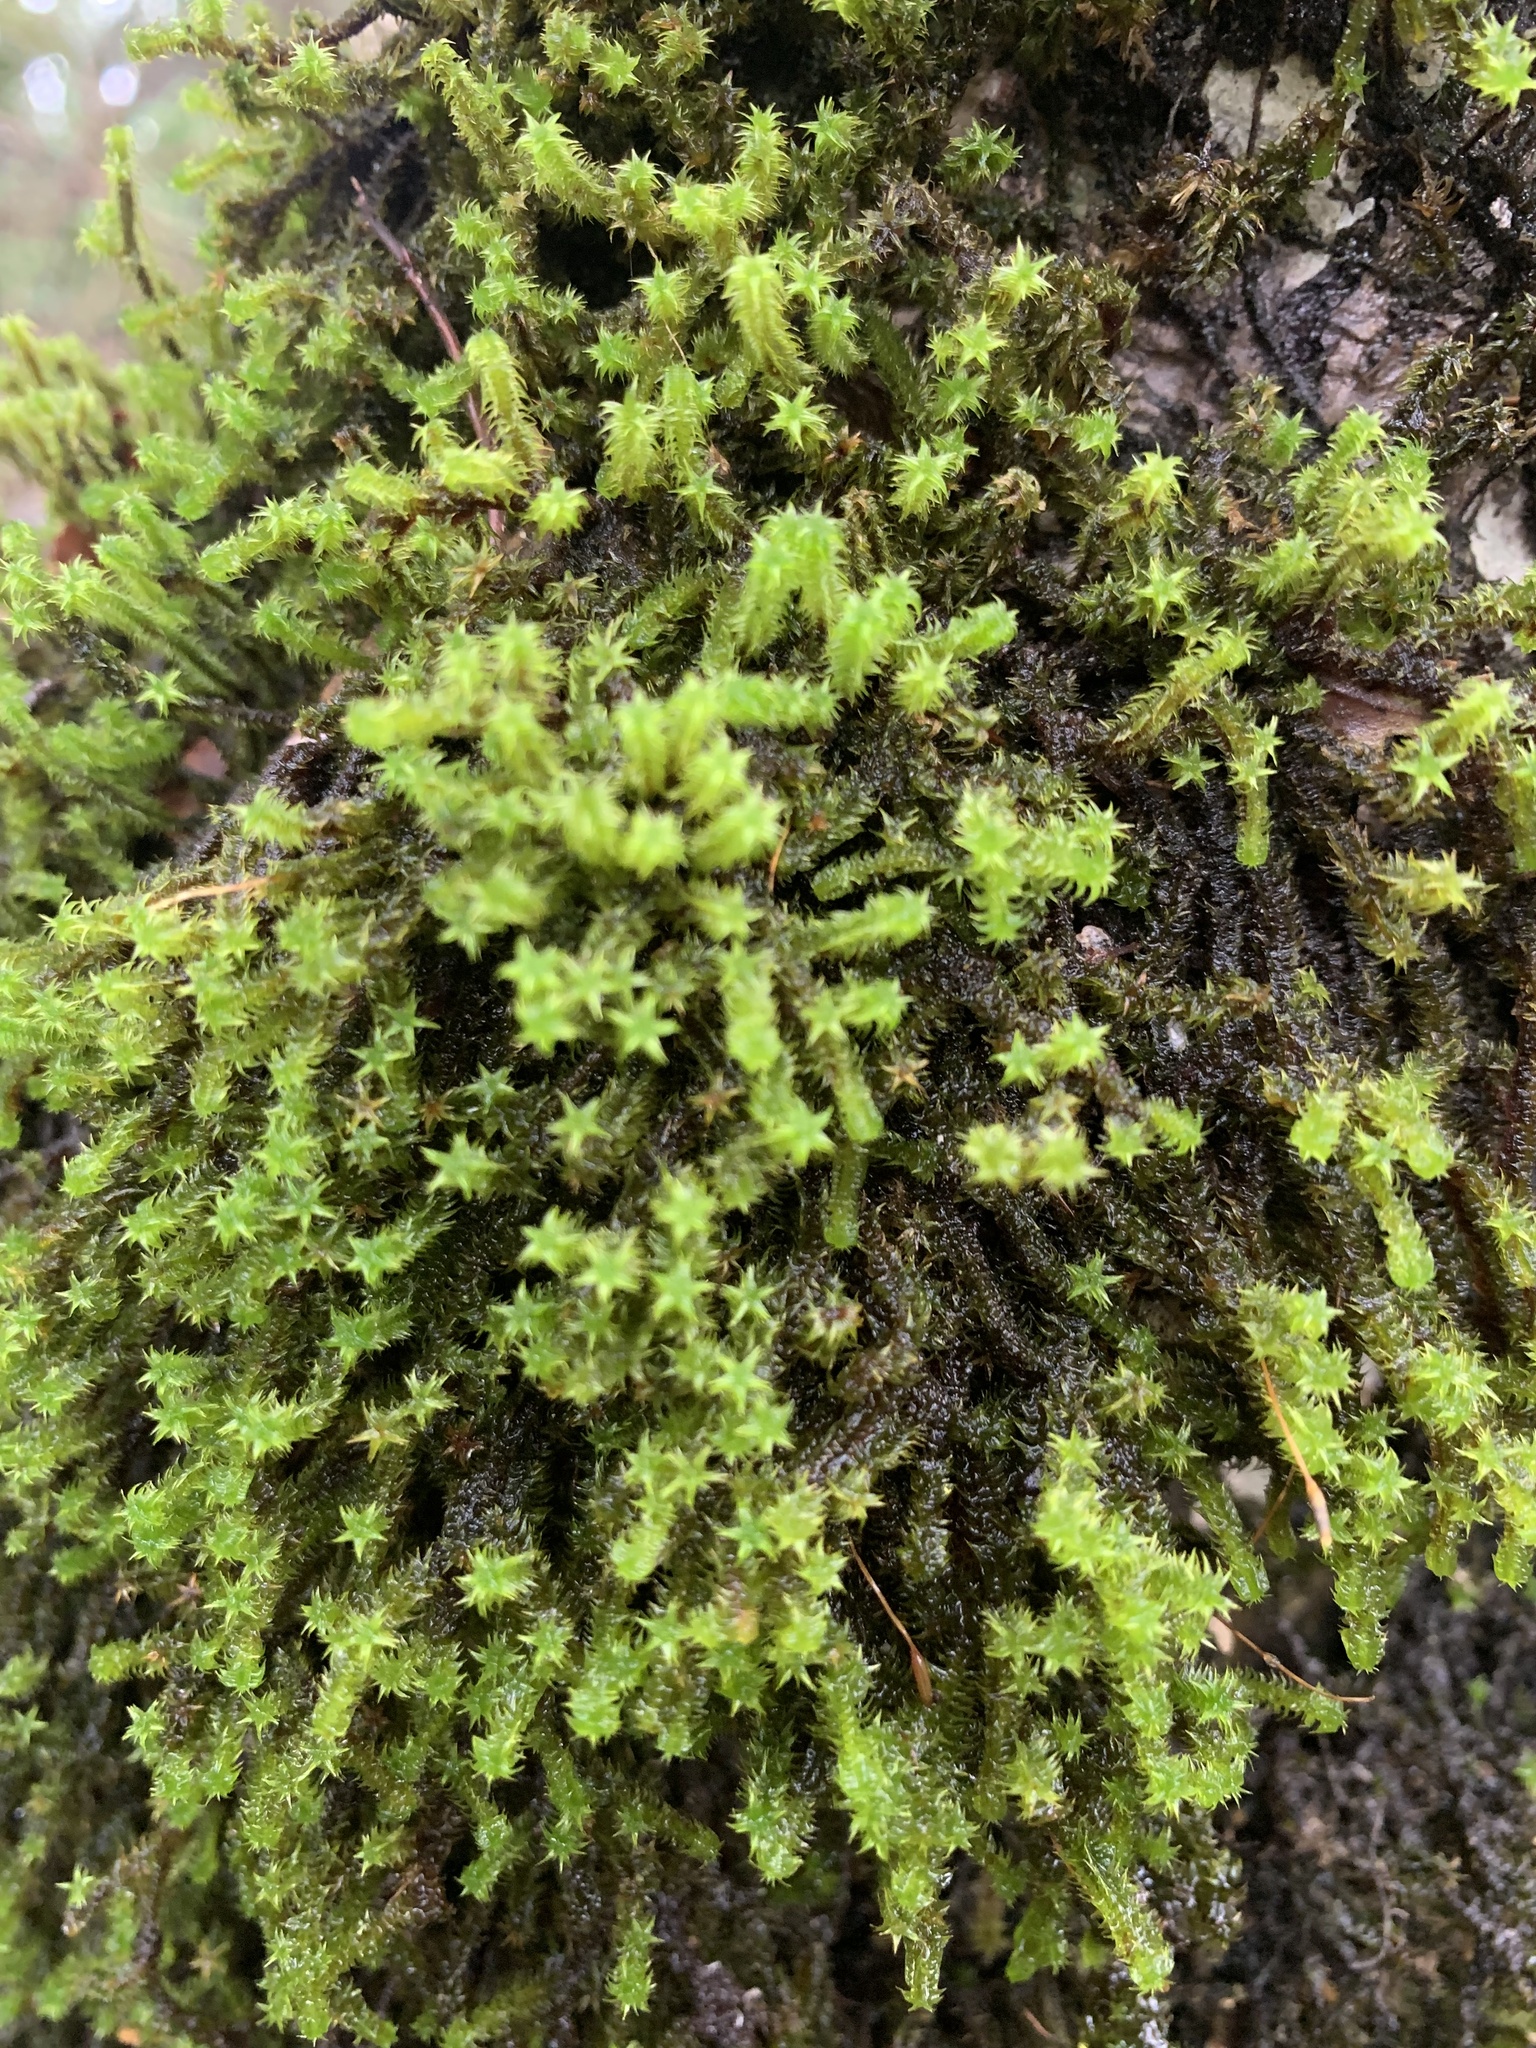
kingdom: Plantae
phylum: Bryophyta
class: Bryopsida
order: Orthotrichales
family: Orthotrichaceae
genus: Pentastichella
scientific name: Pentastichella pentasticha
